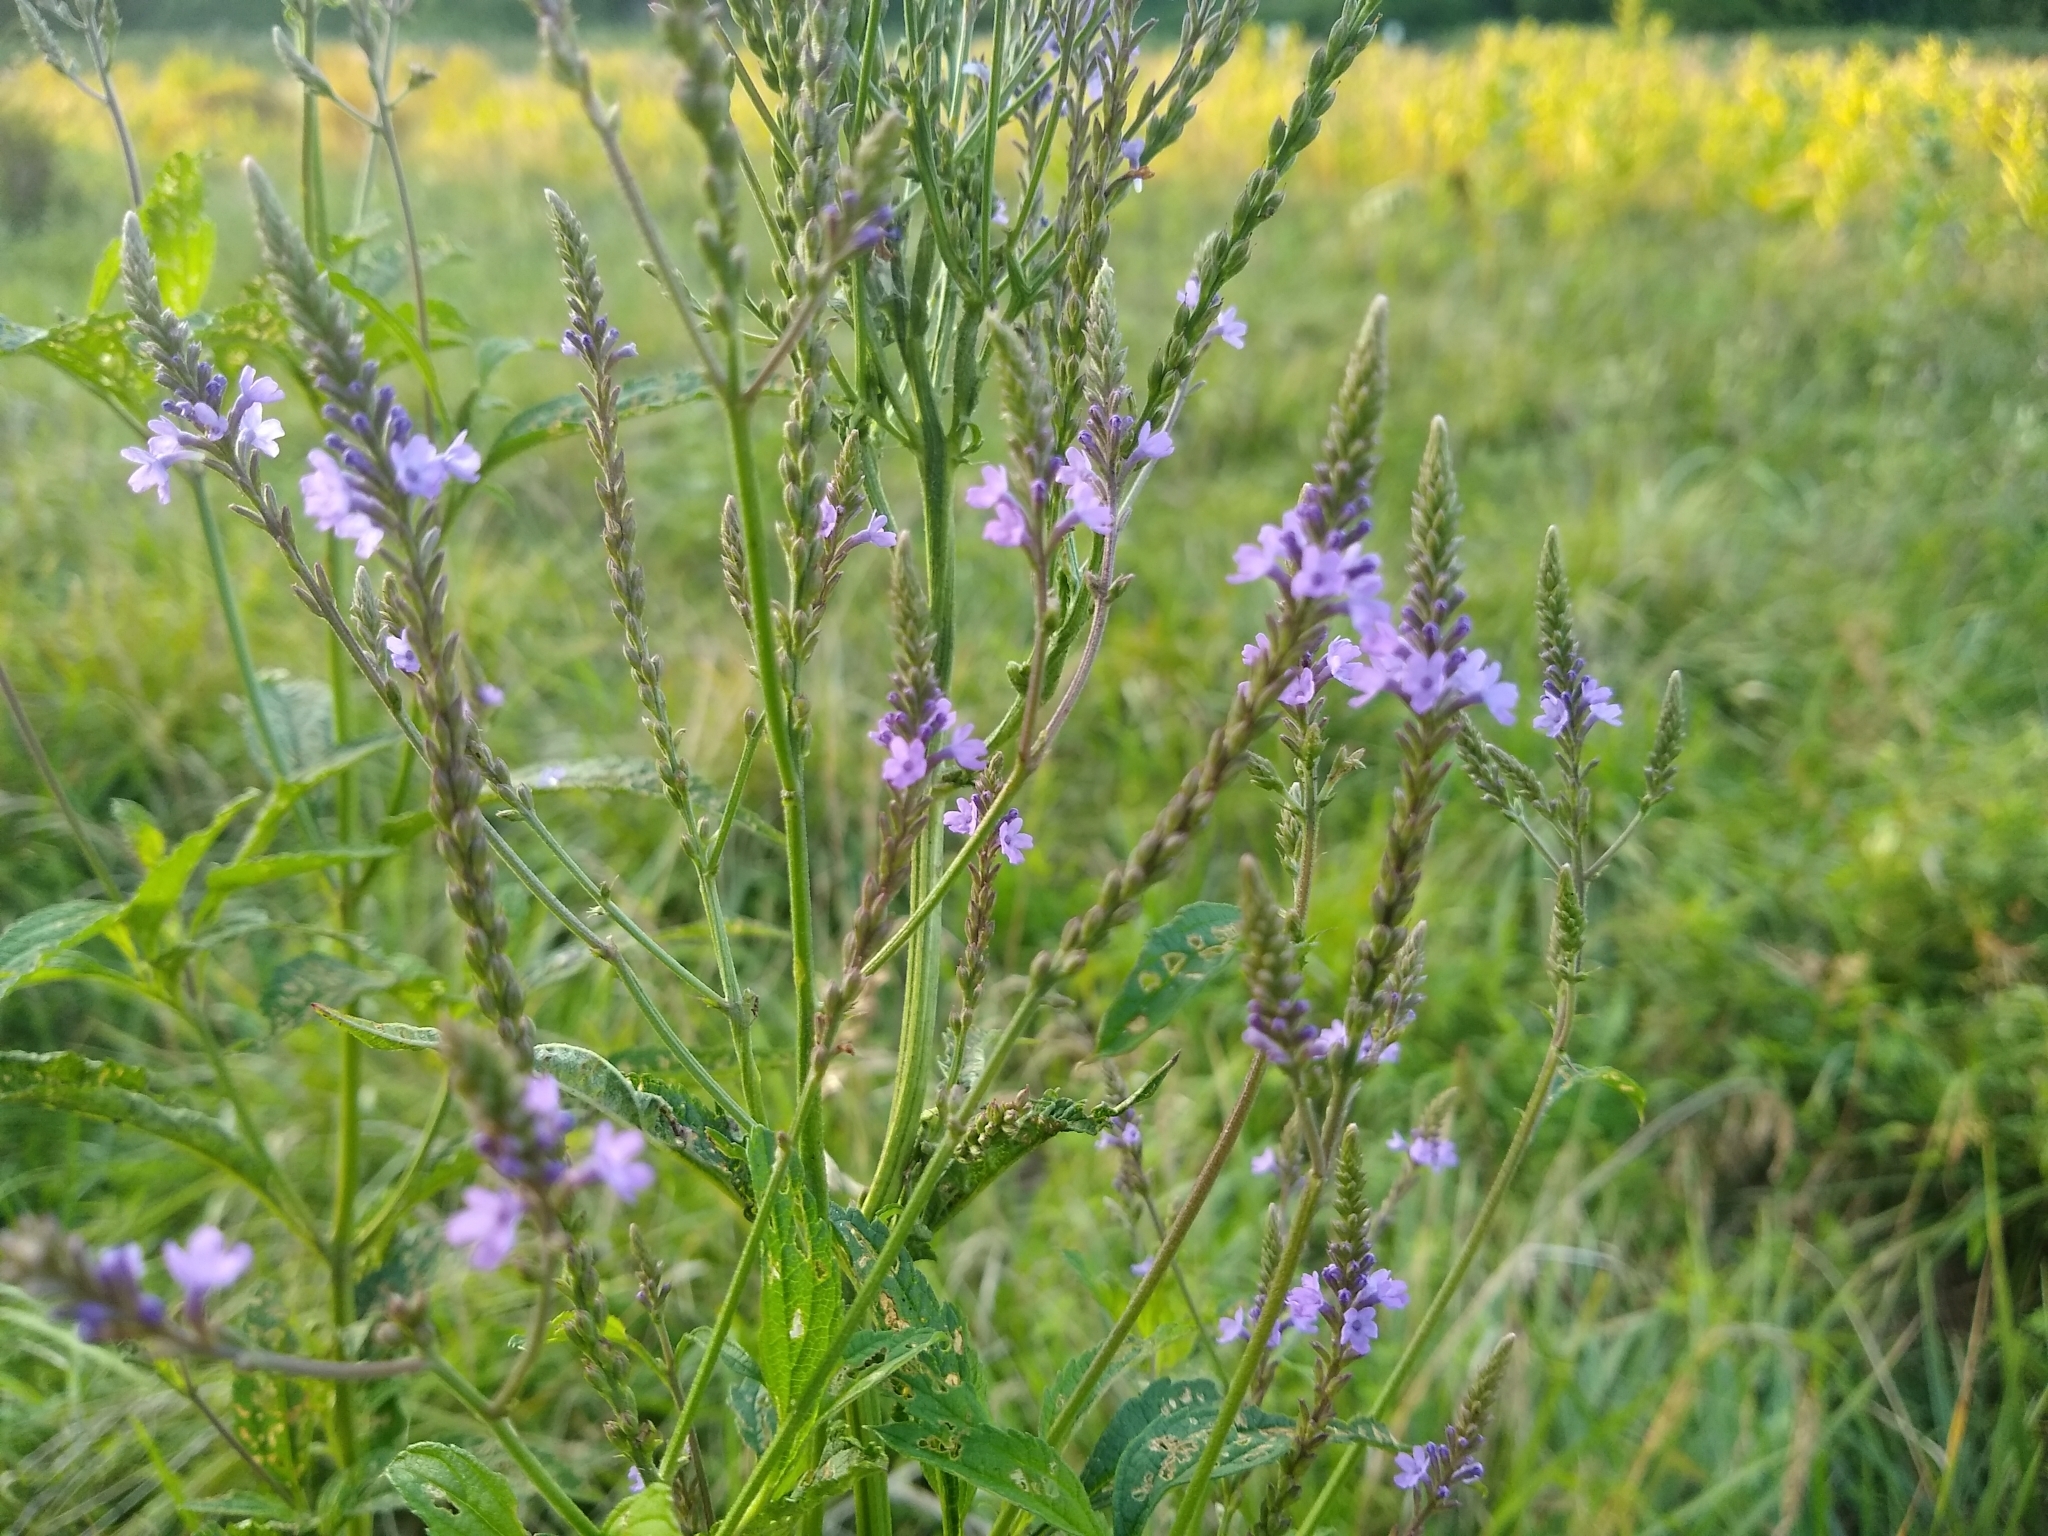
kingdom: Plantae
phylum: Tracheophyta
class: Magnoliopsida
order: Lamiales
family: Verbenaceae
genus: Verbena
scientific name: Verbena hastata
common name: American blue vervain
